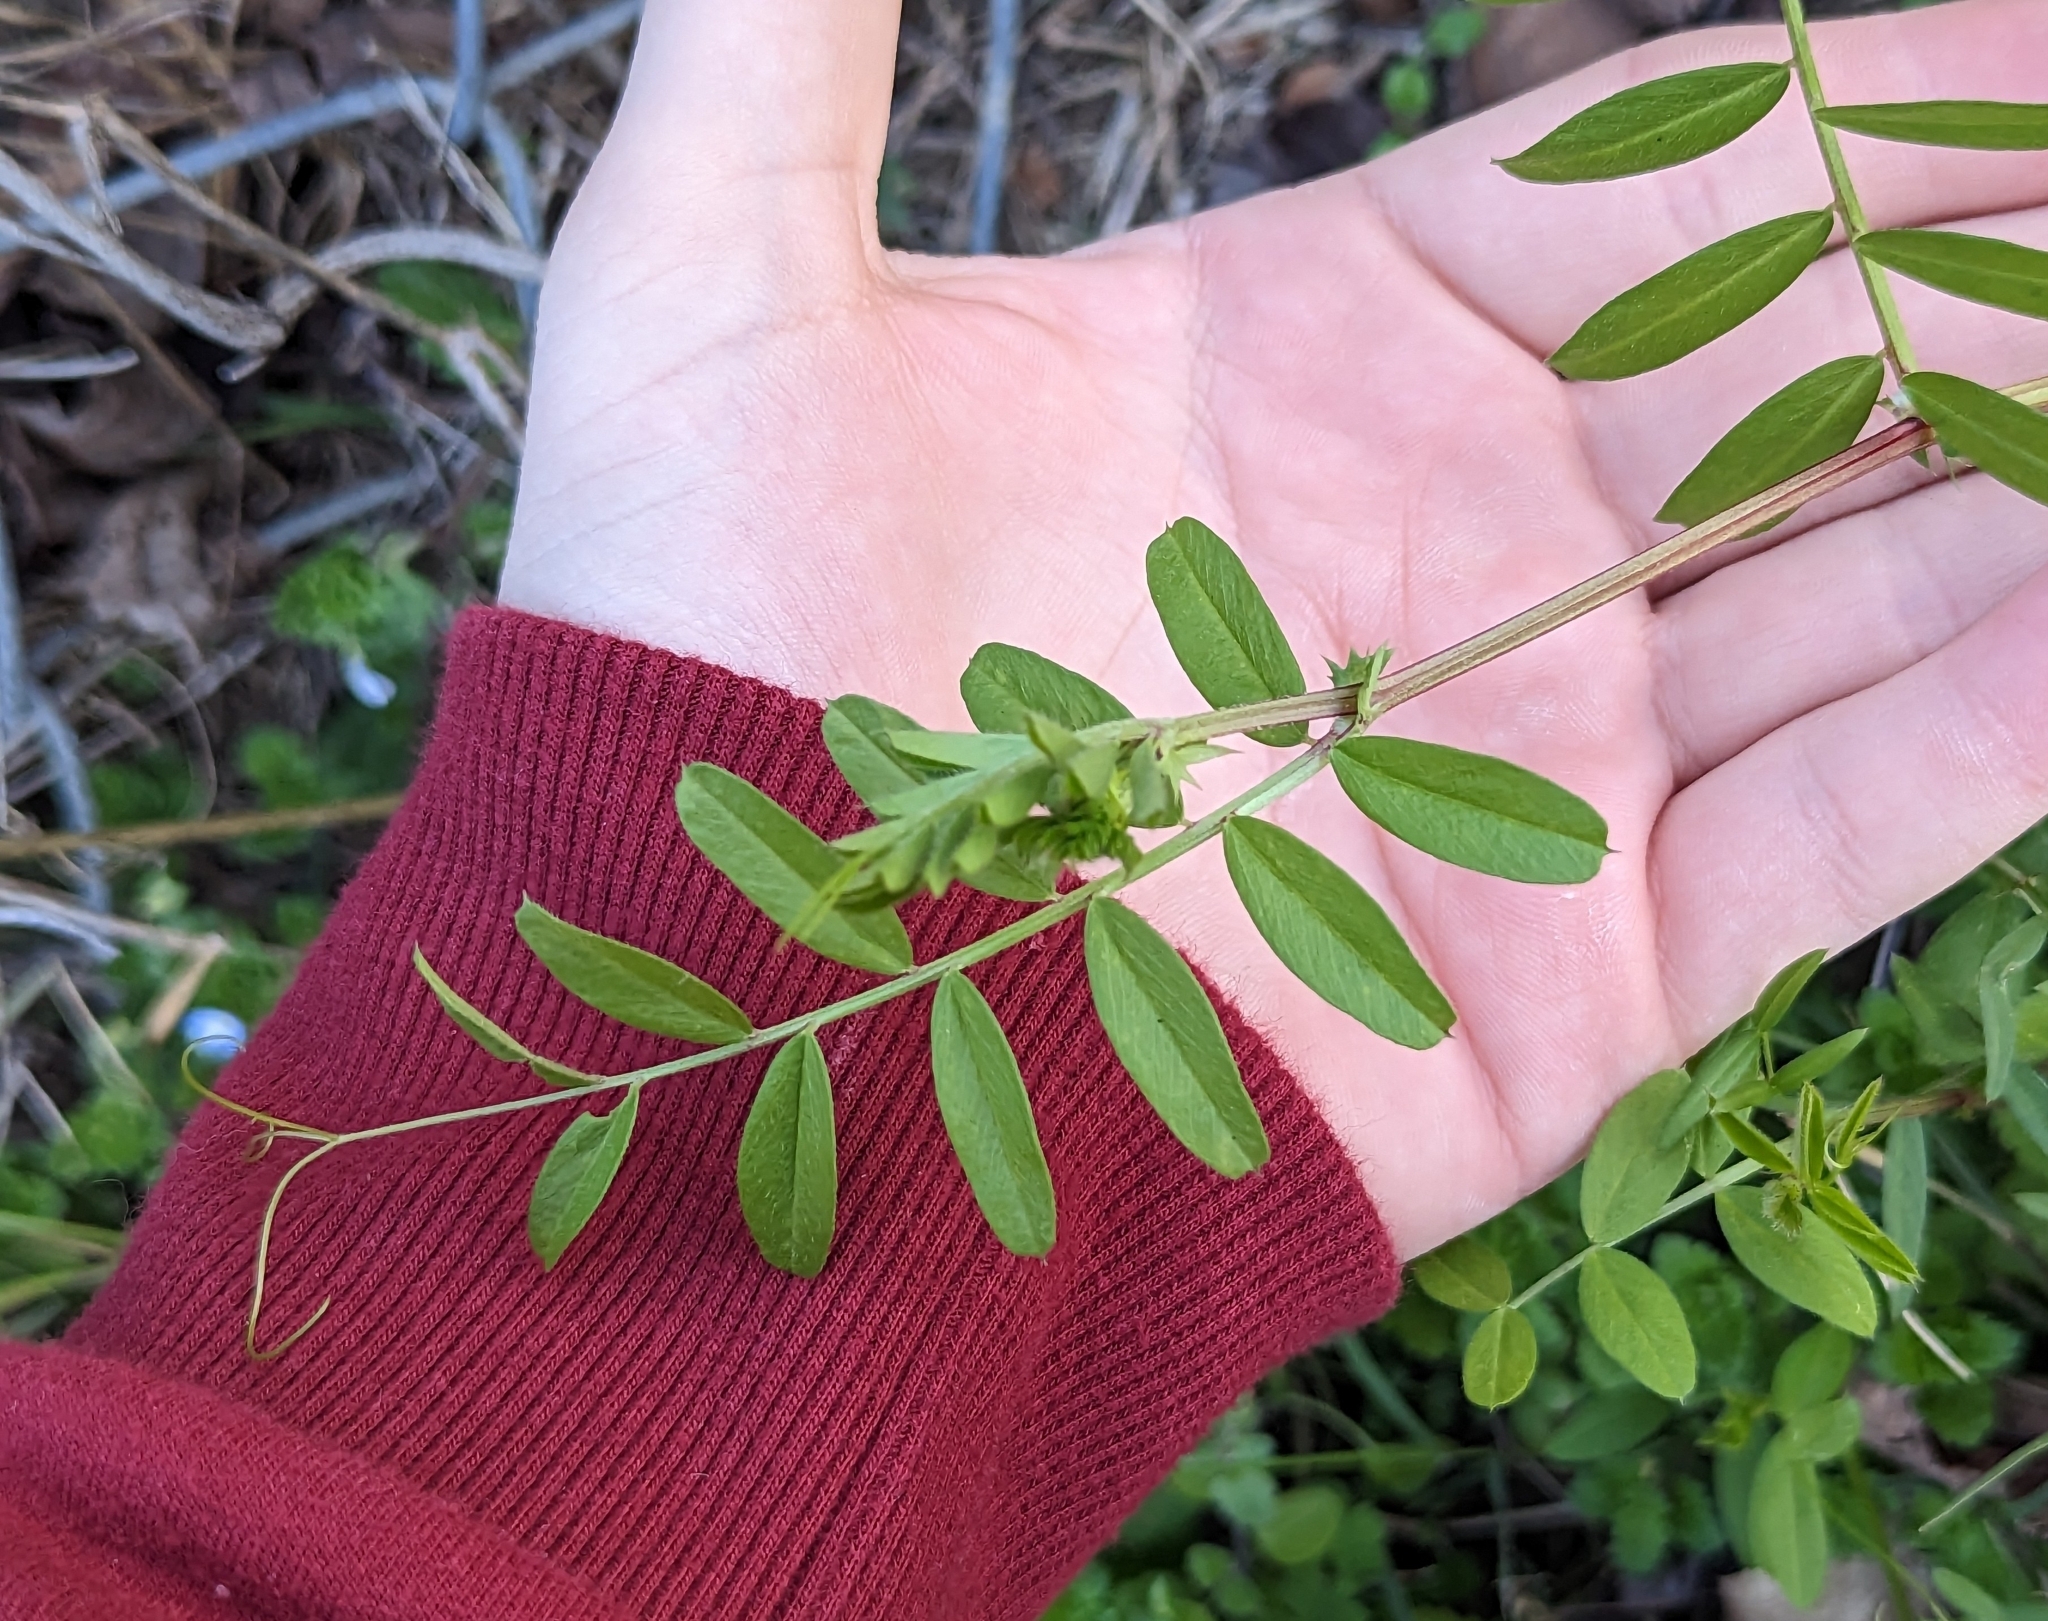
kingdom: Plantae
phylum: Tracheophyta
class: Magnoliopsida
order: Fabales
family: Fabaceae
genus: Vicia
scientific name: Vicia sativa
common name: Garden vetch
